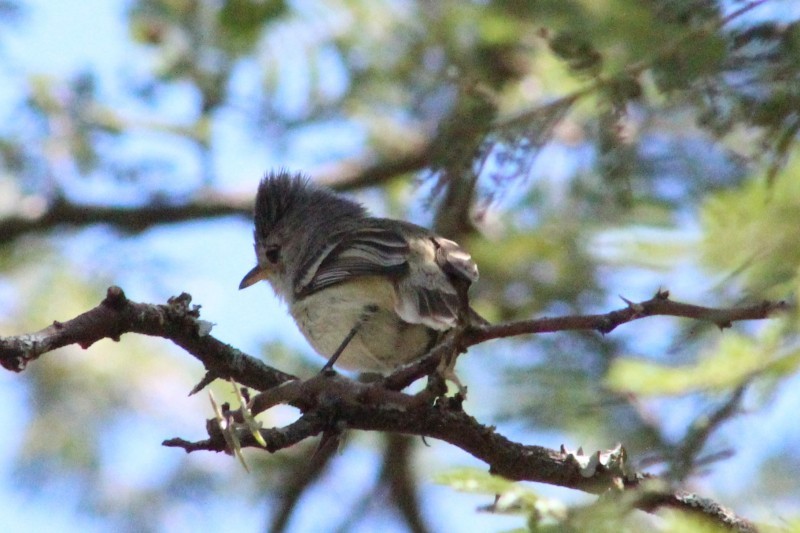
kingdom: Animalia
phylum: Chordata
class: Aves
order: Passeriformes
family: Tyrannidae
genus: Camptostoma
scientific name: Camptostoma obsoletum
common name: Southern beardless-tyrannulet
